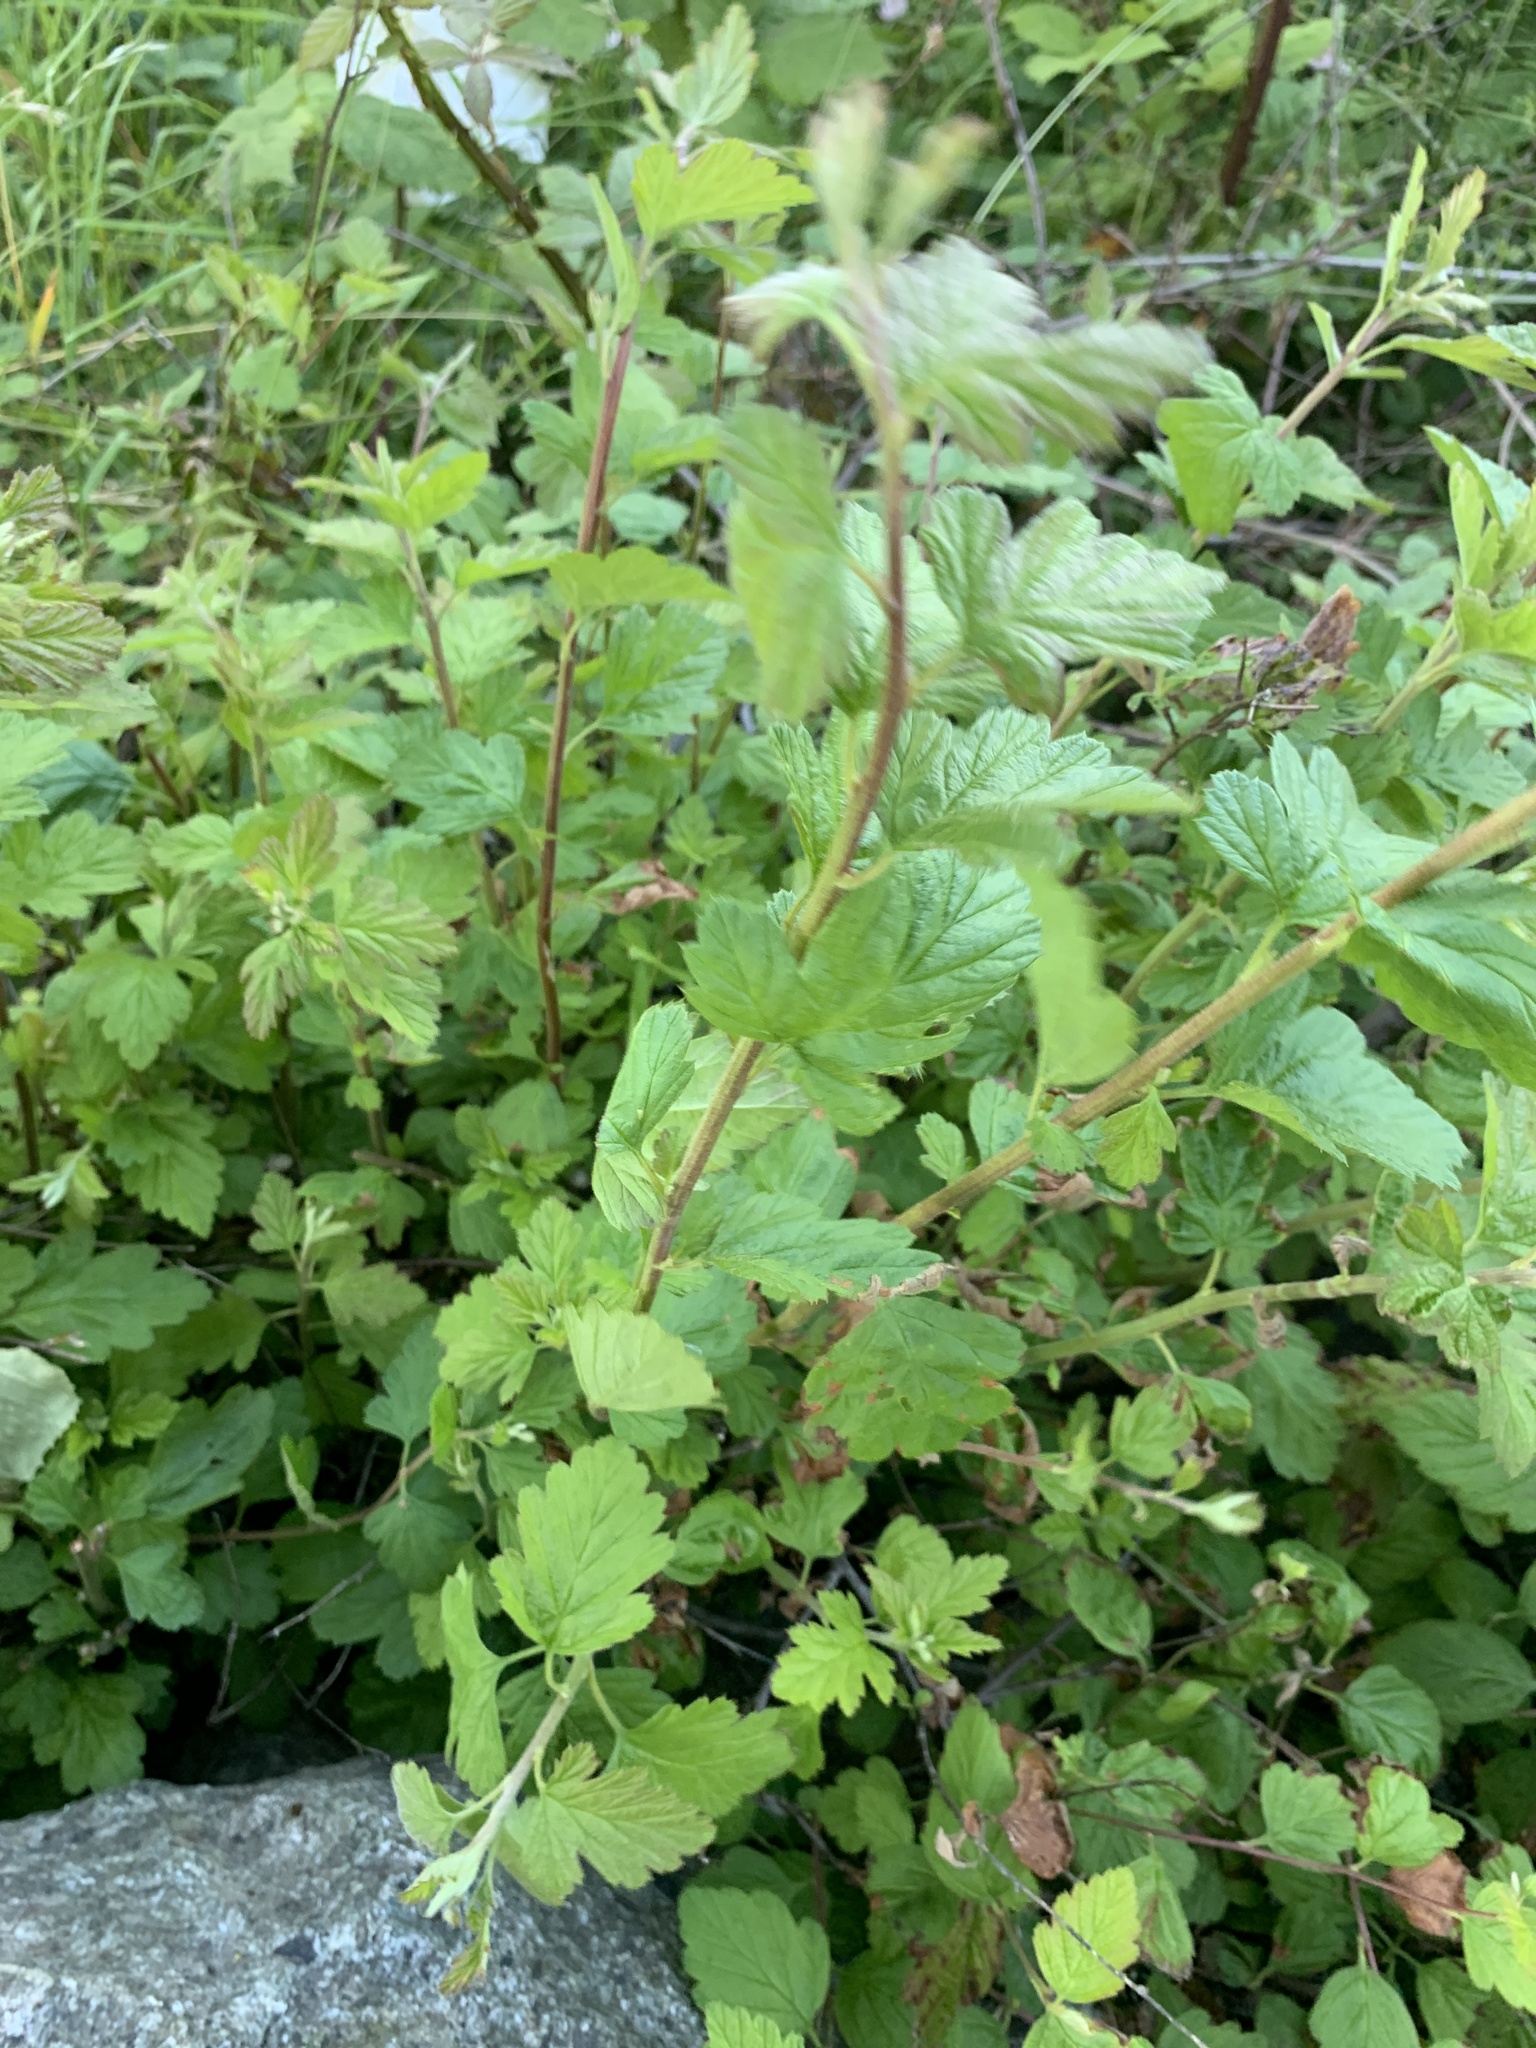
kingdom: Plantae
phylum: Tracheophyta
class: Magnoliopsida
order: Rosales
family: Rosaceae
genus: Holodiscus
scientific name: Holodiscus discolor
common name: Oceanspray
